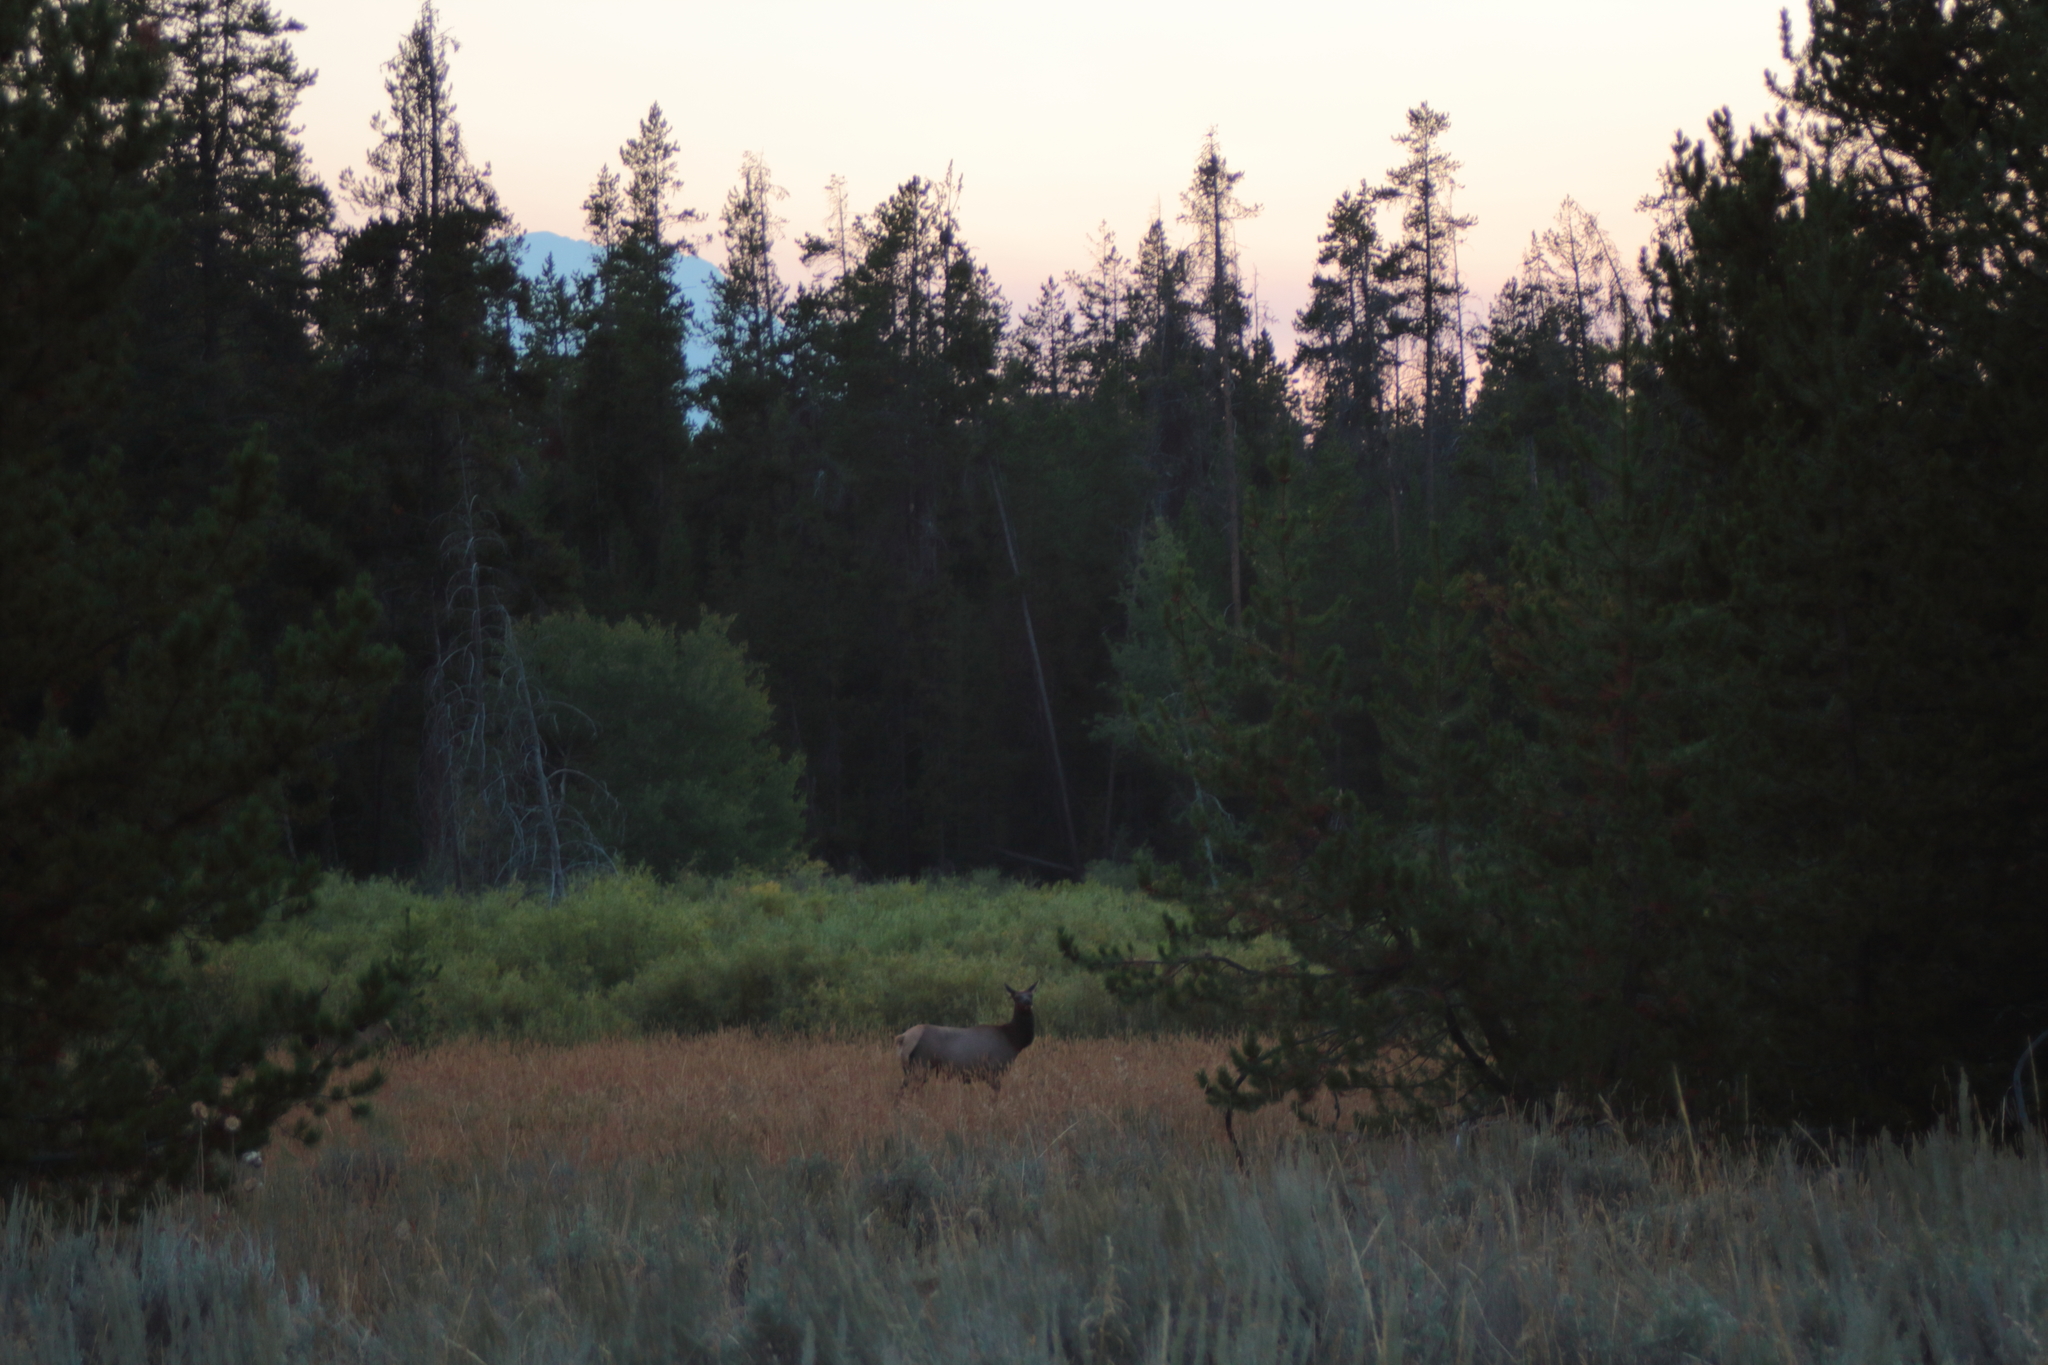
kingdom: Animalia
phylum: Chordata
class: Mammalia
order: Artiodactyla
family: Cervidae
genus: Cervus
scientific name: Cervus elaphus
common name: Red deer
